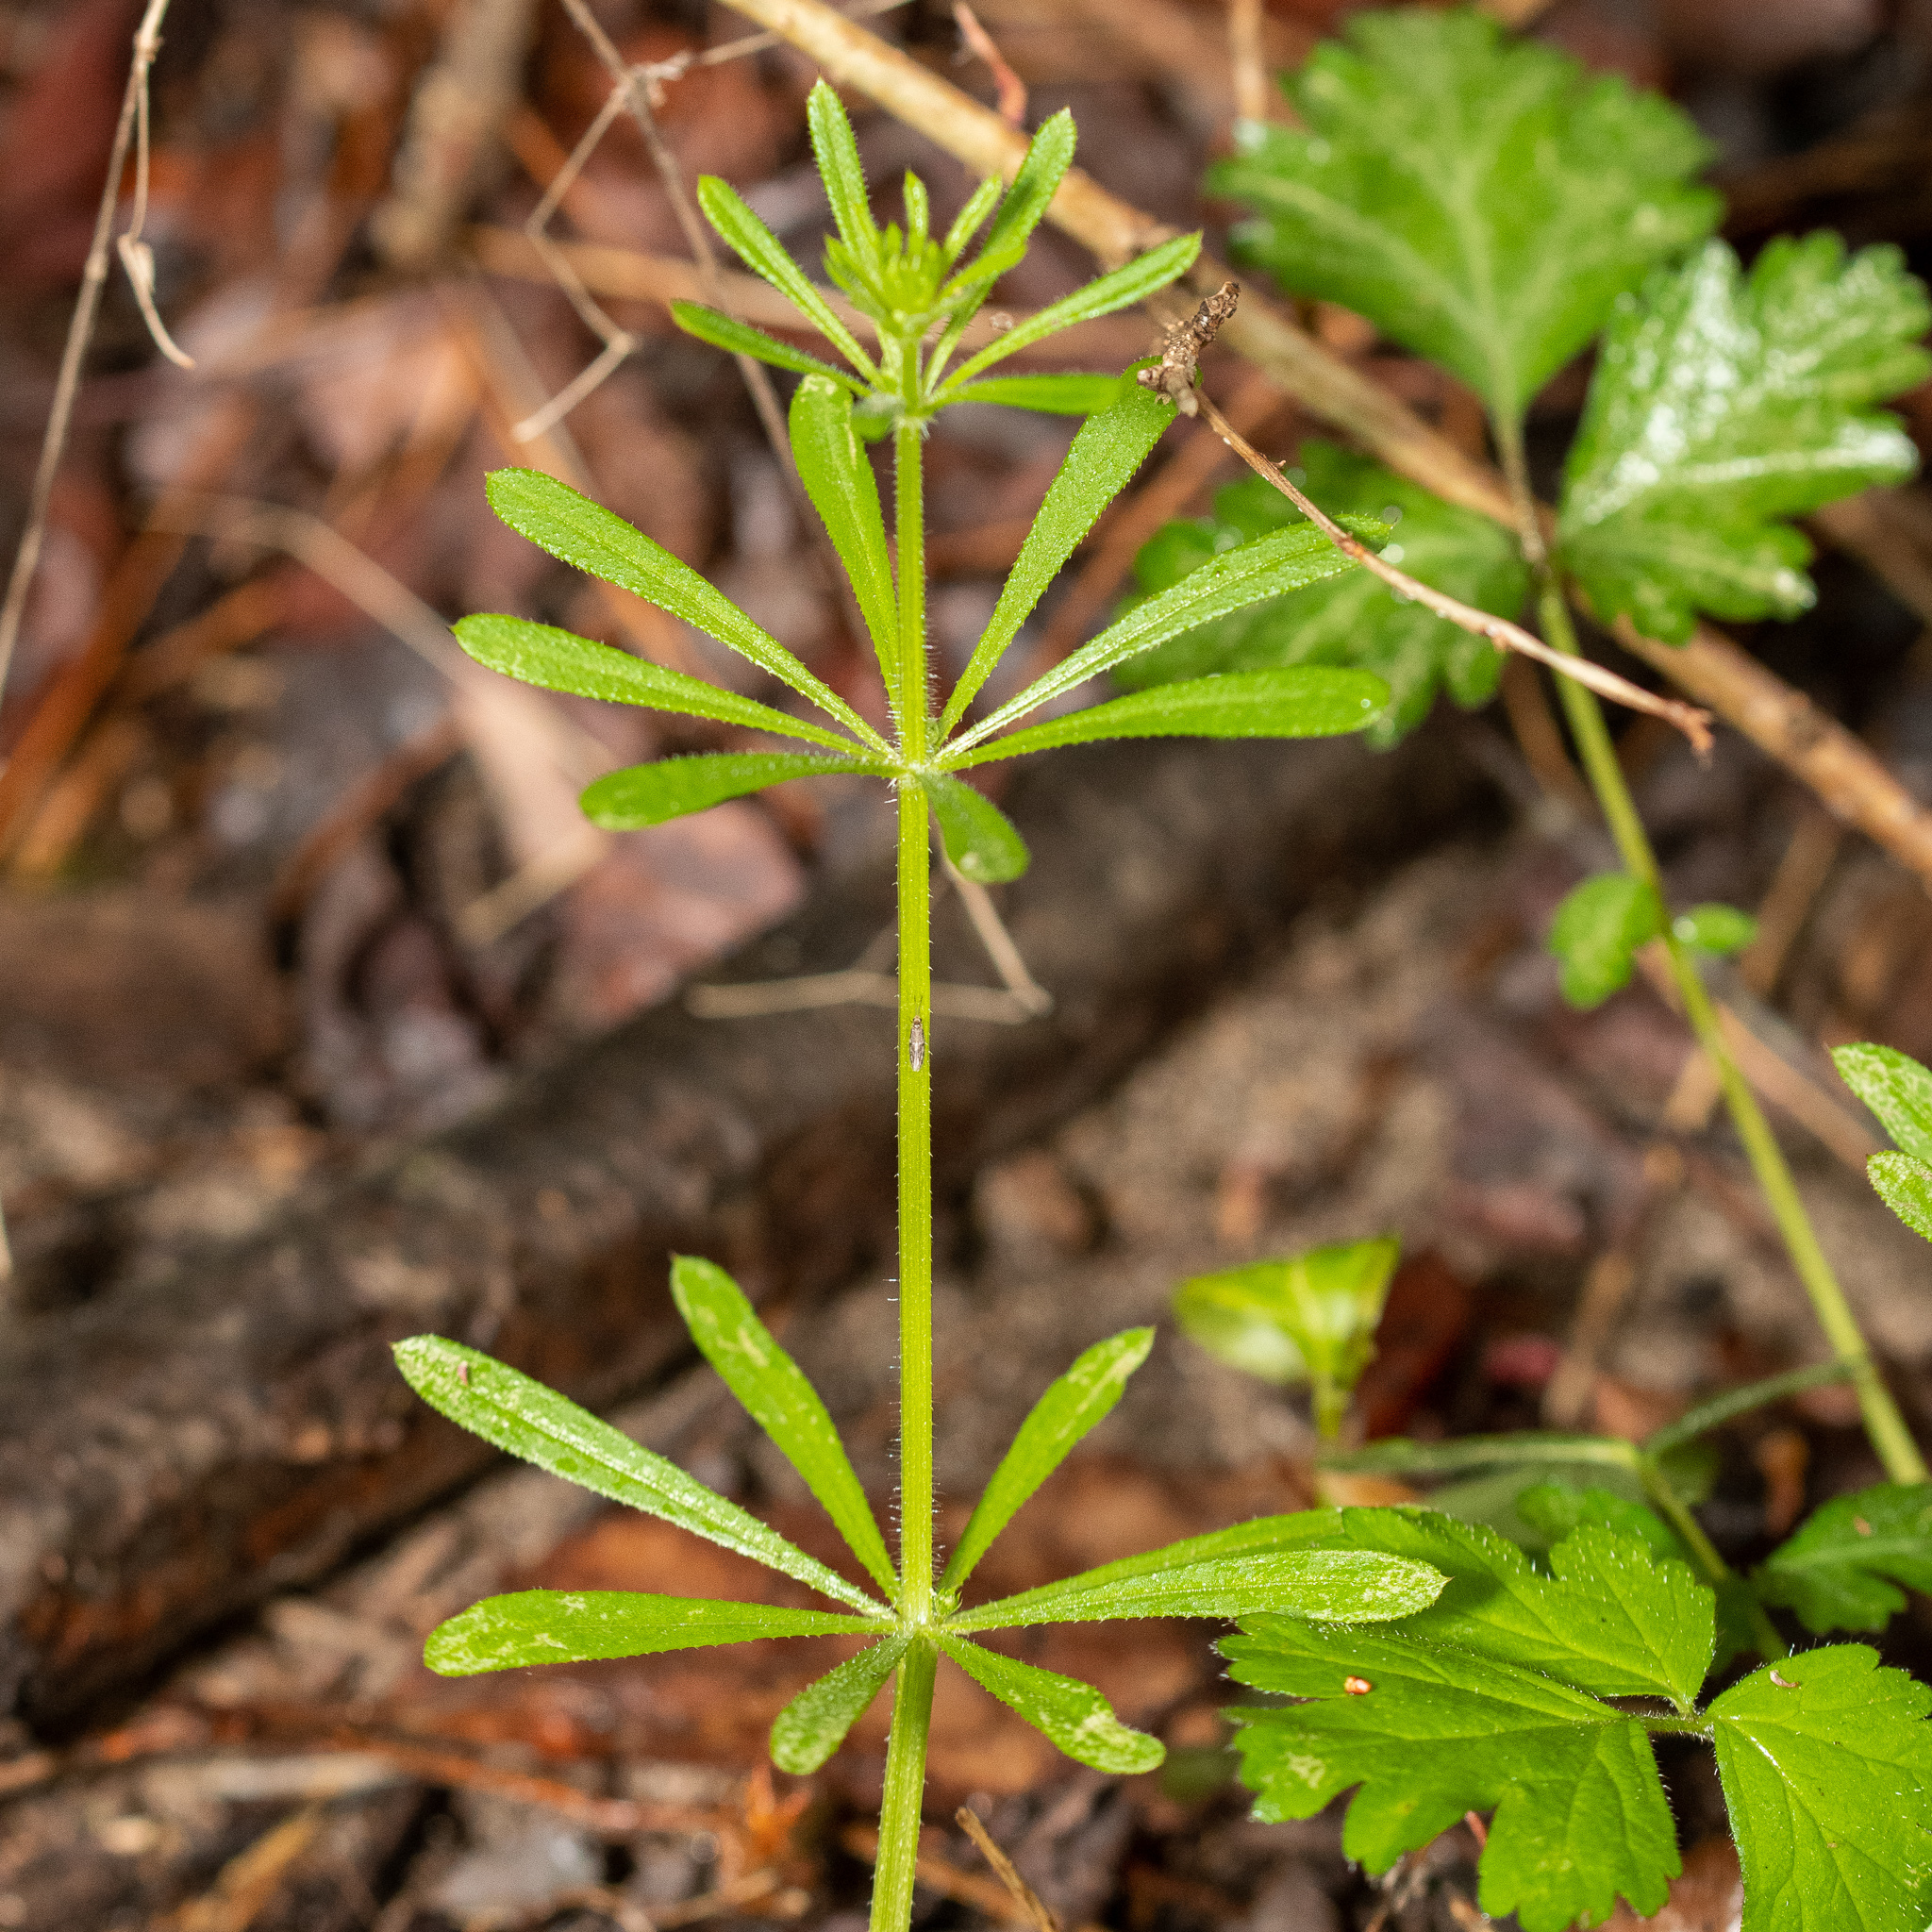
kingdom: Plantae
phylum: Tracheophyta
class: Magnoliopsida
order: Gentianales
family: Rubiaceae
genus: Galium
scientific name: Galium aparine
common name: Cleavers
